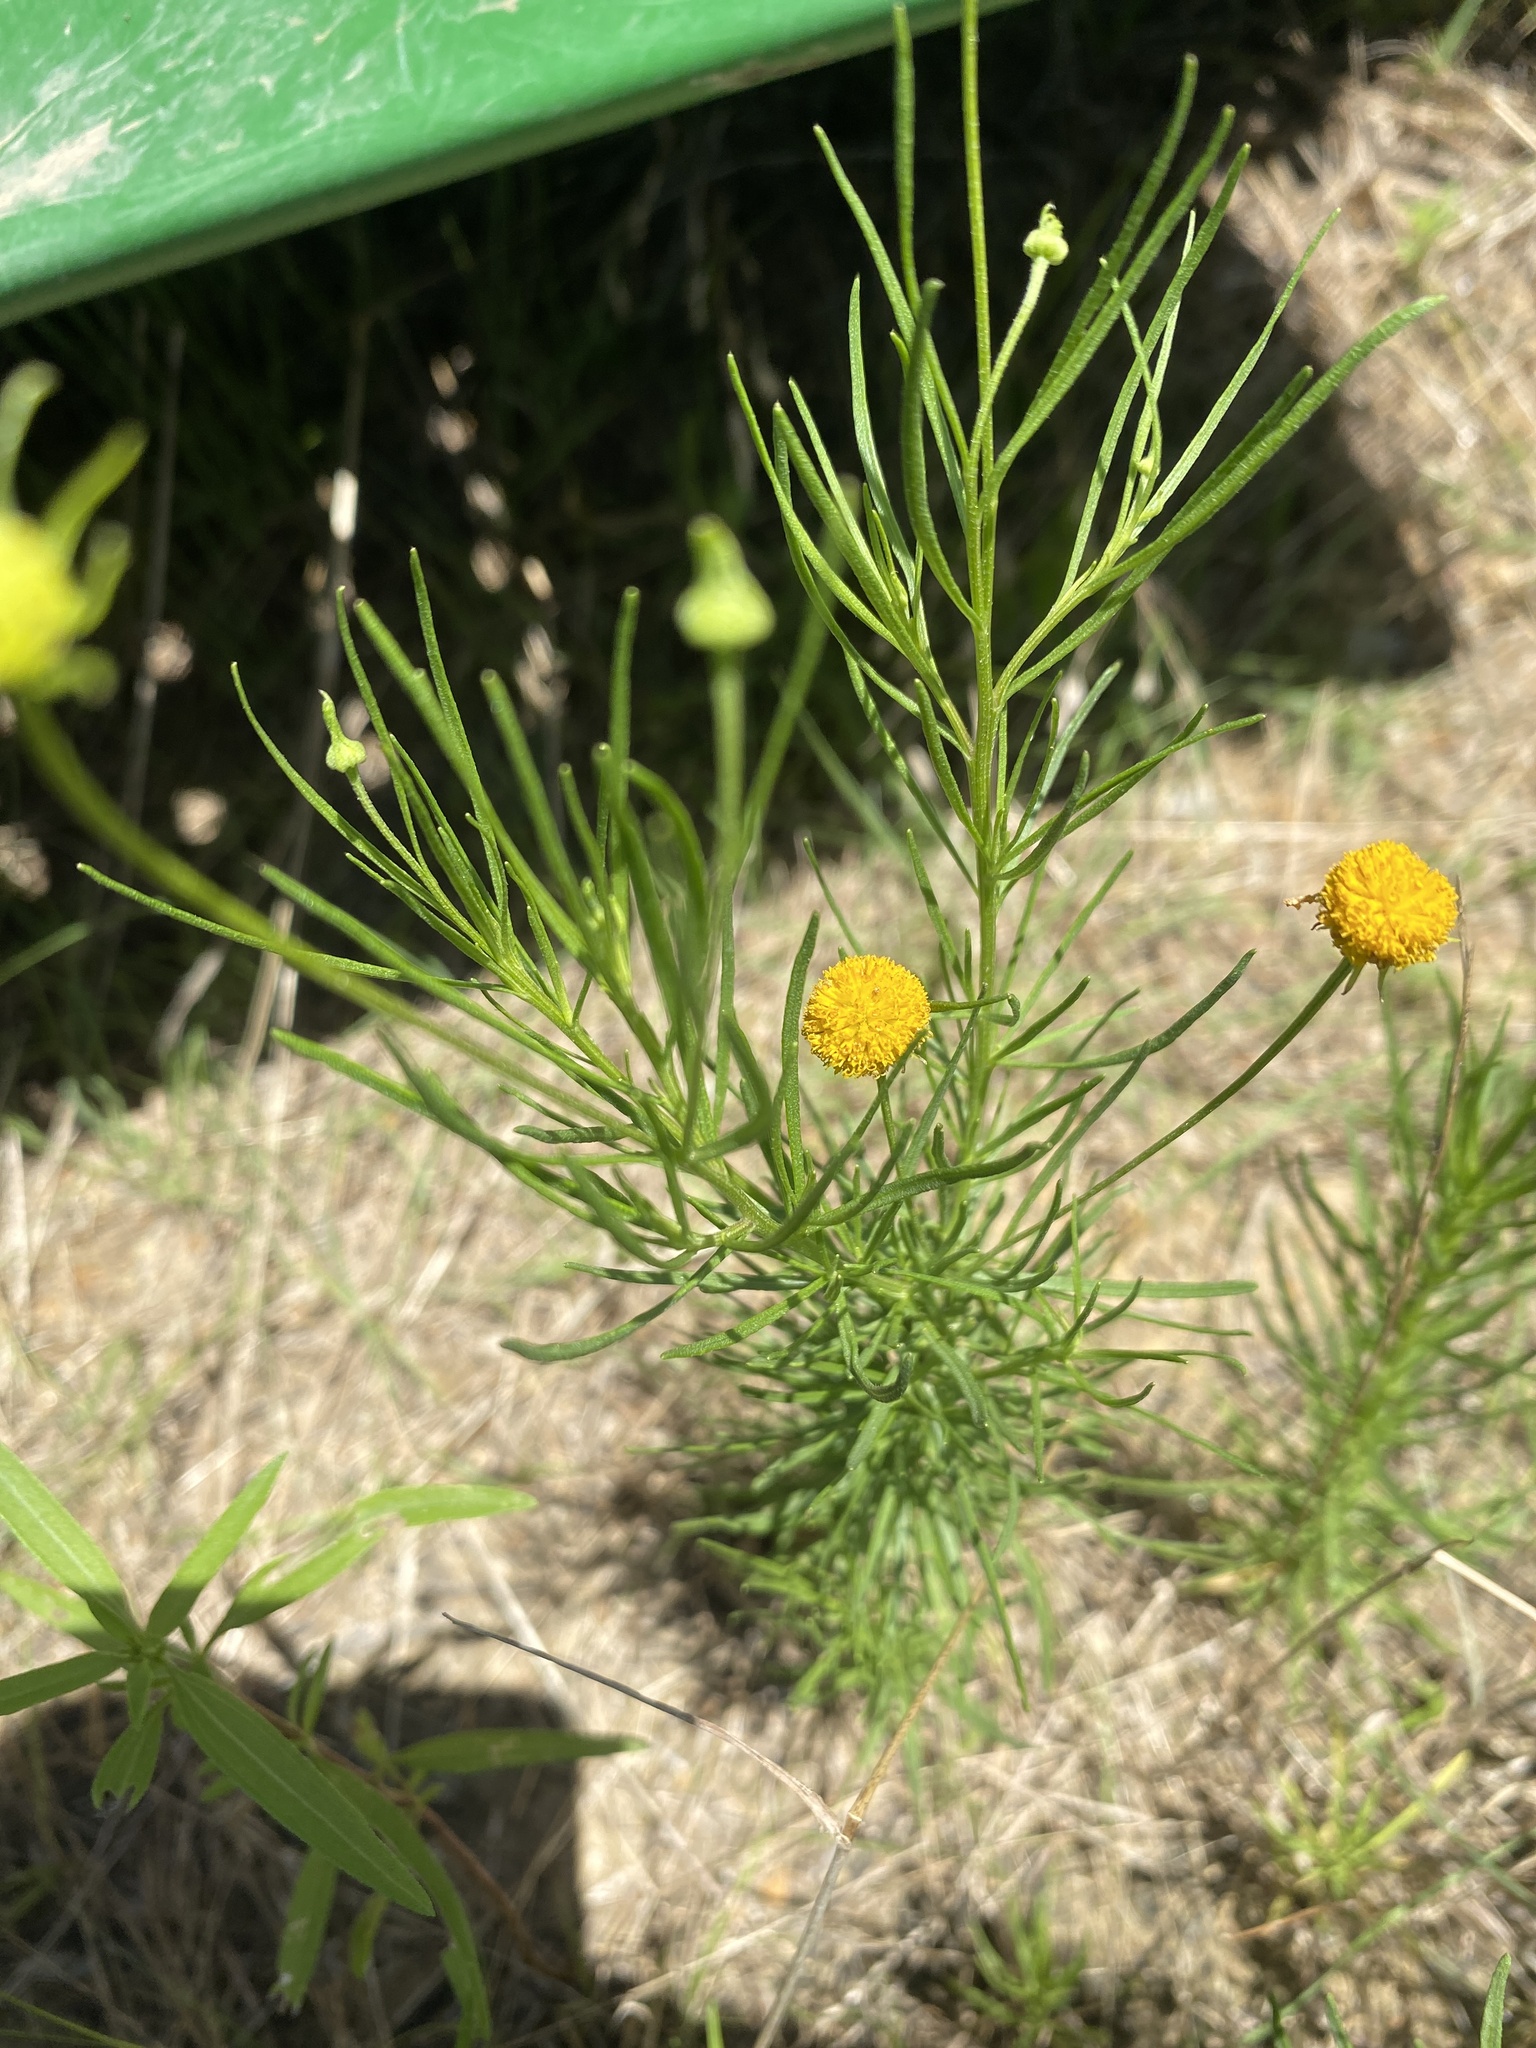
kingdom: Plantae
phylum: Tracheophyta
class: Magnoliopsida
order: Asterales
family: Asteraceae
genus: Helenium
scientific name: Helenium amarum
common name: Bitter sneezeweed
